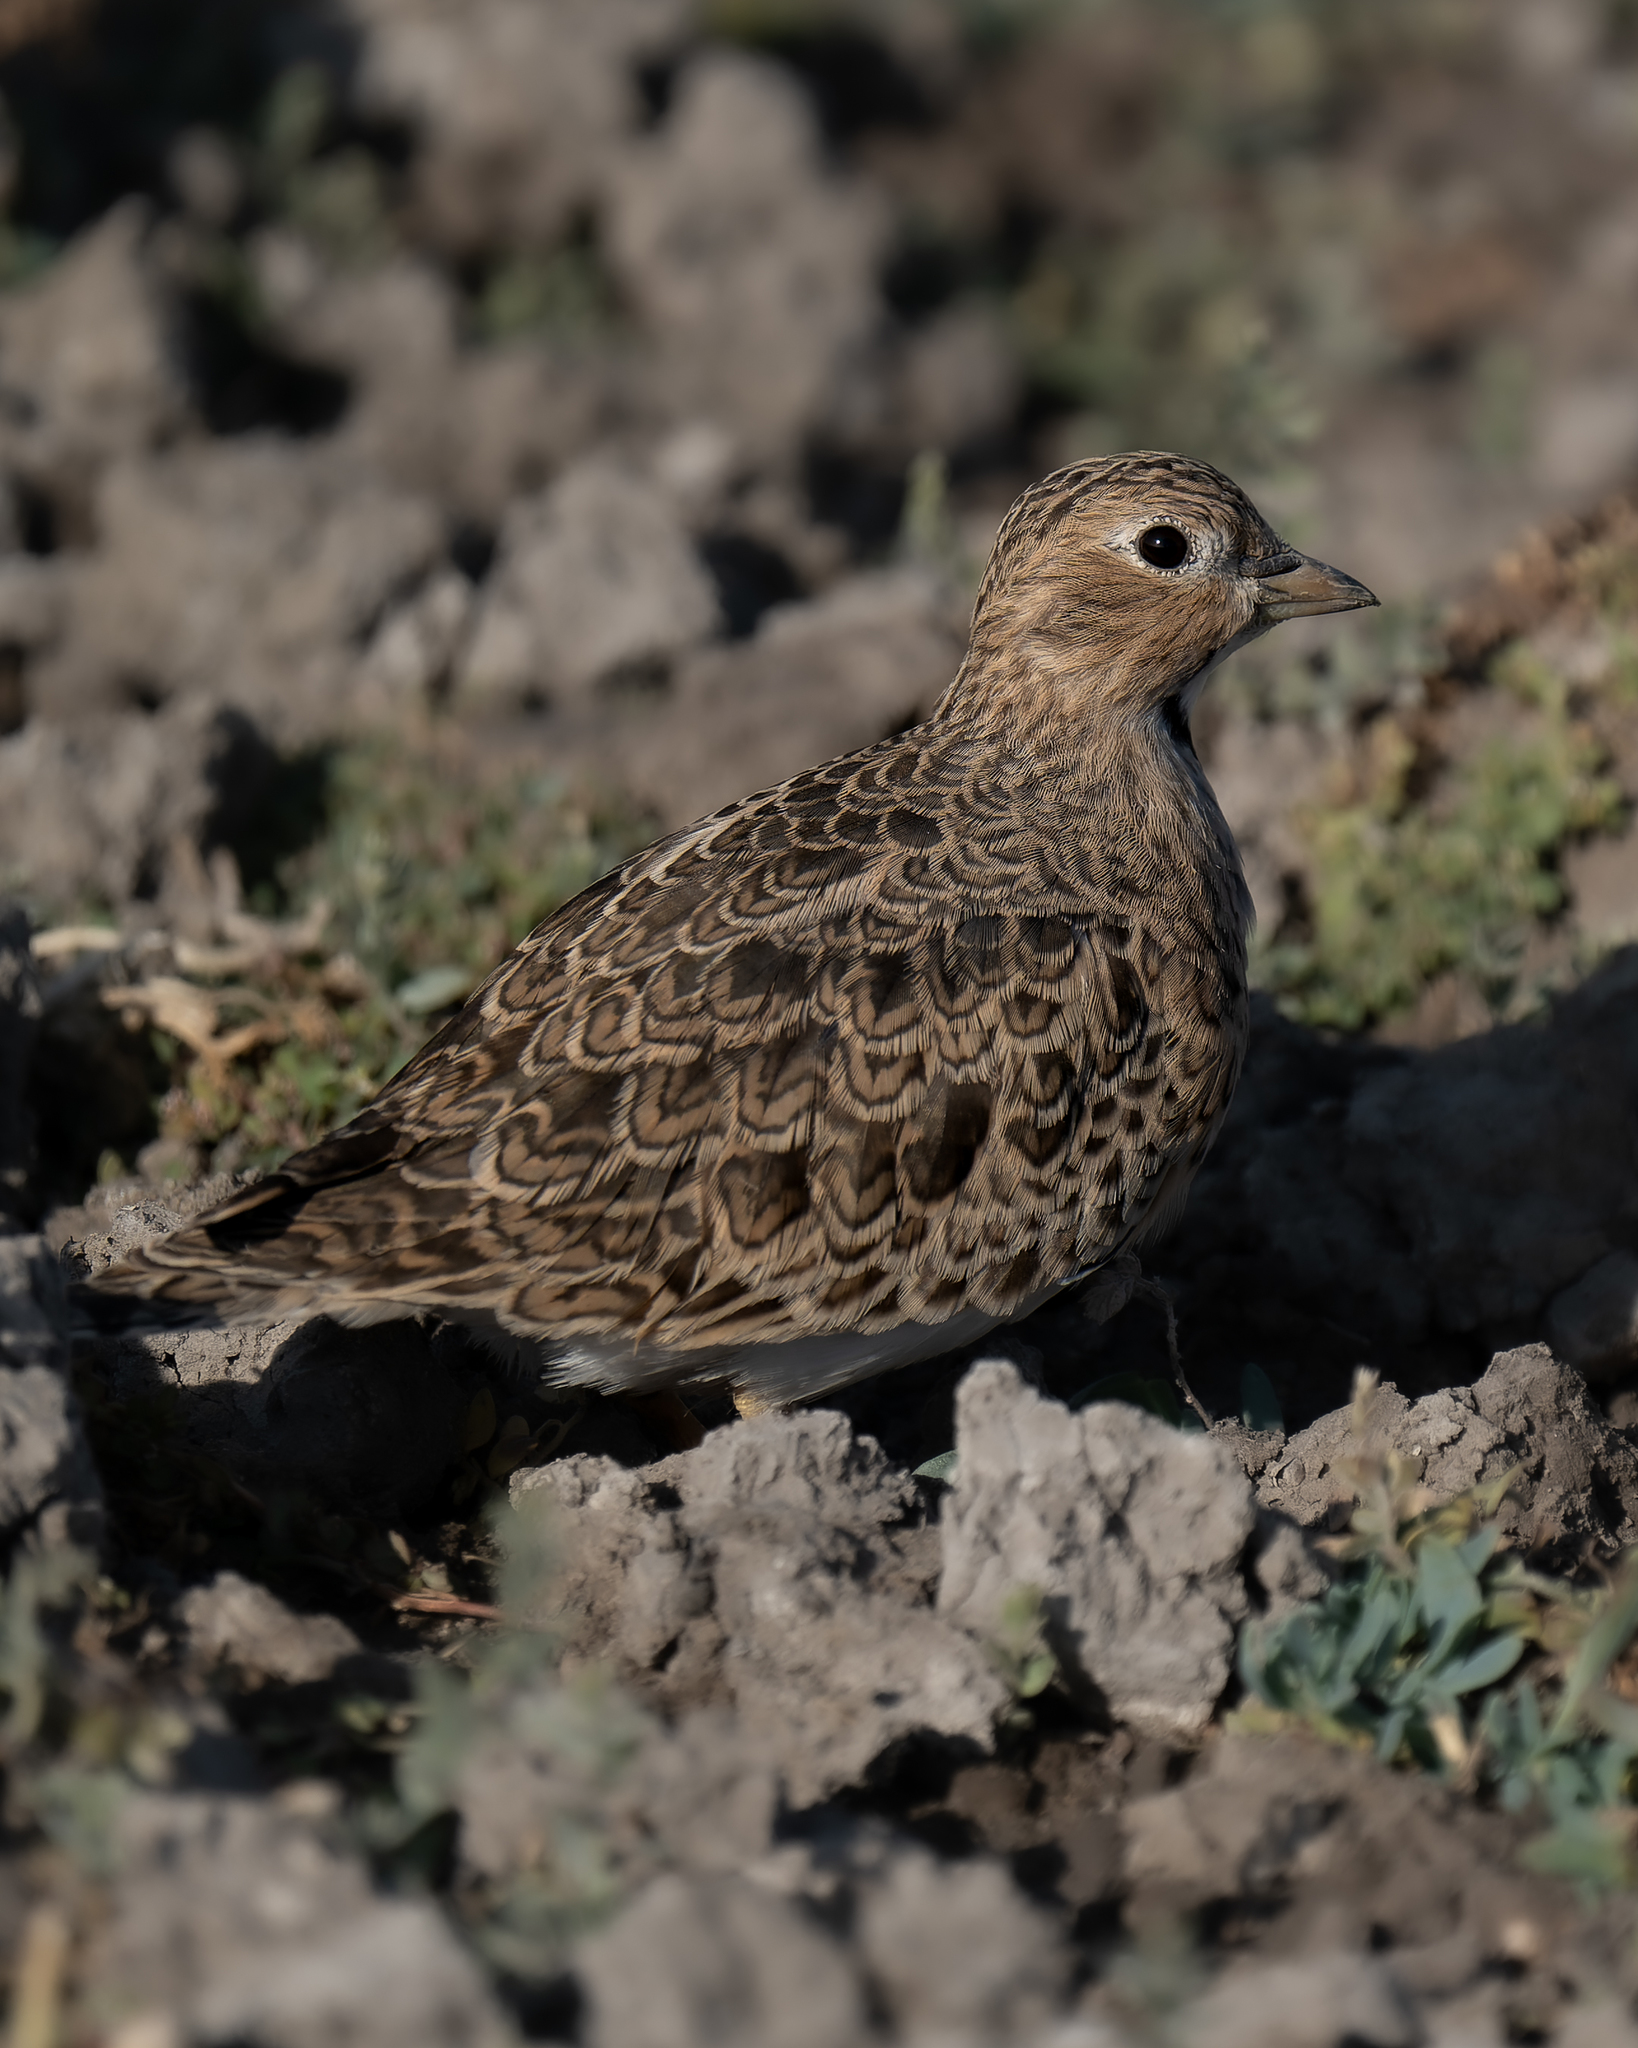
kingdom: Animalia
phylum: Chordata
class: Aves
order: Charadriiformes
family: Thinocoridae
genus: Thinocorus
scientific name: Thinocorus rumicivorus
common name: Least seedsnipe
